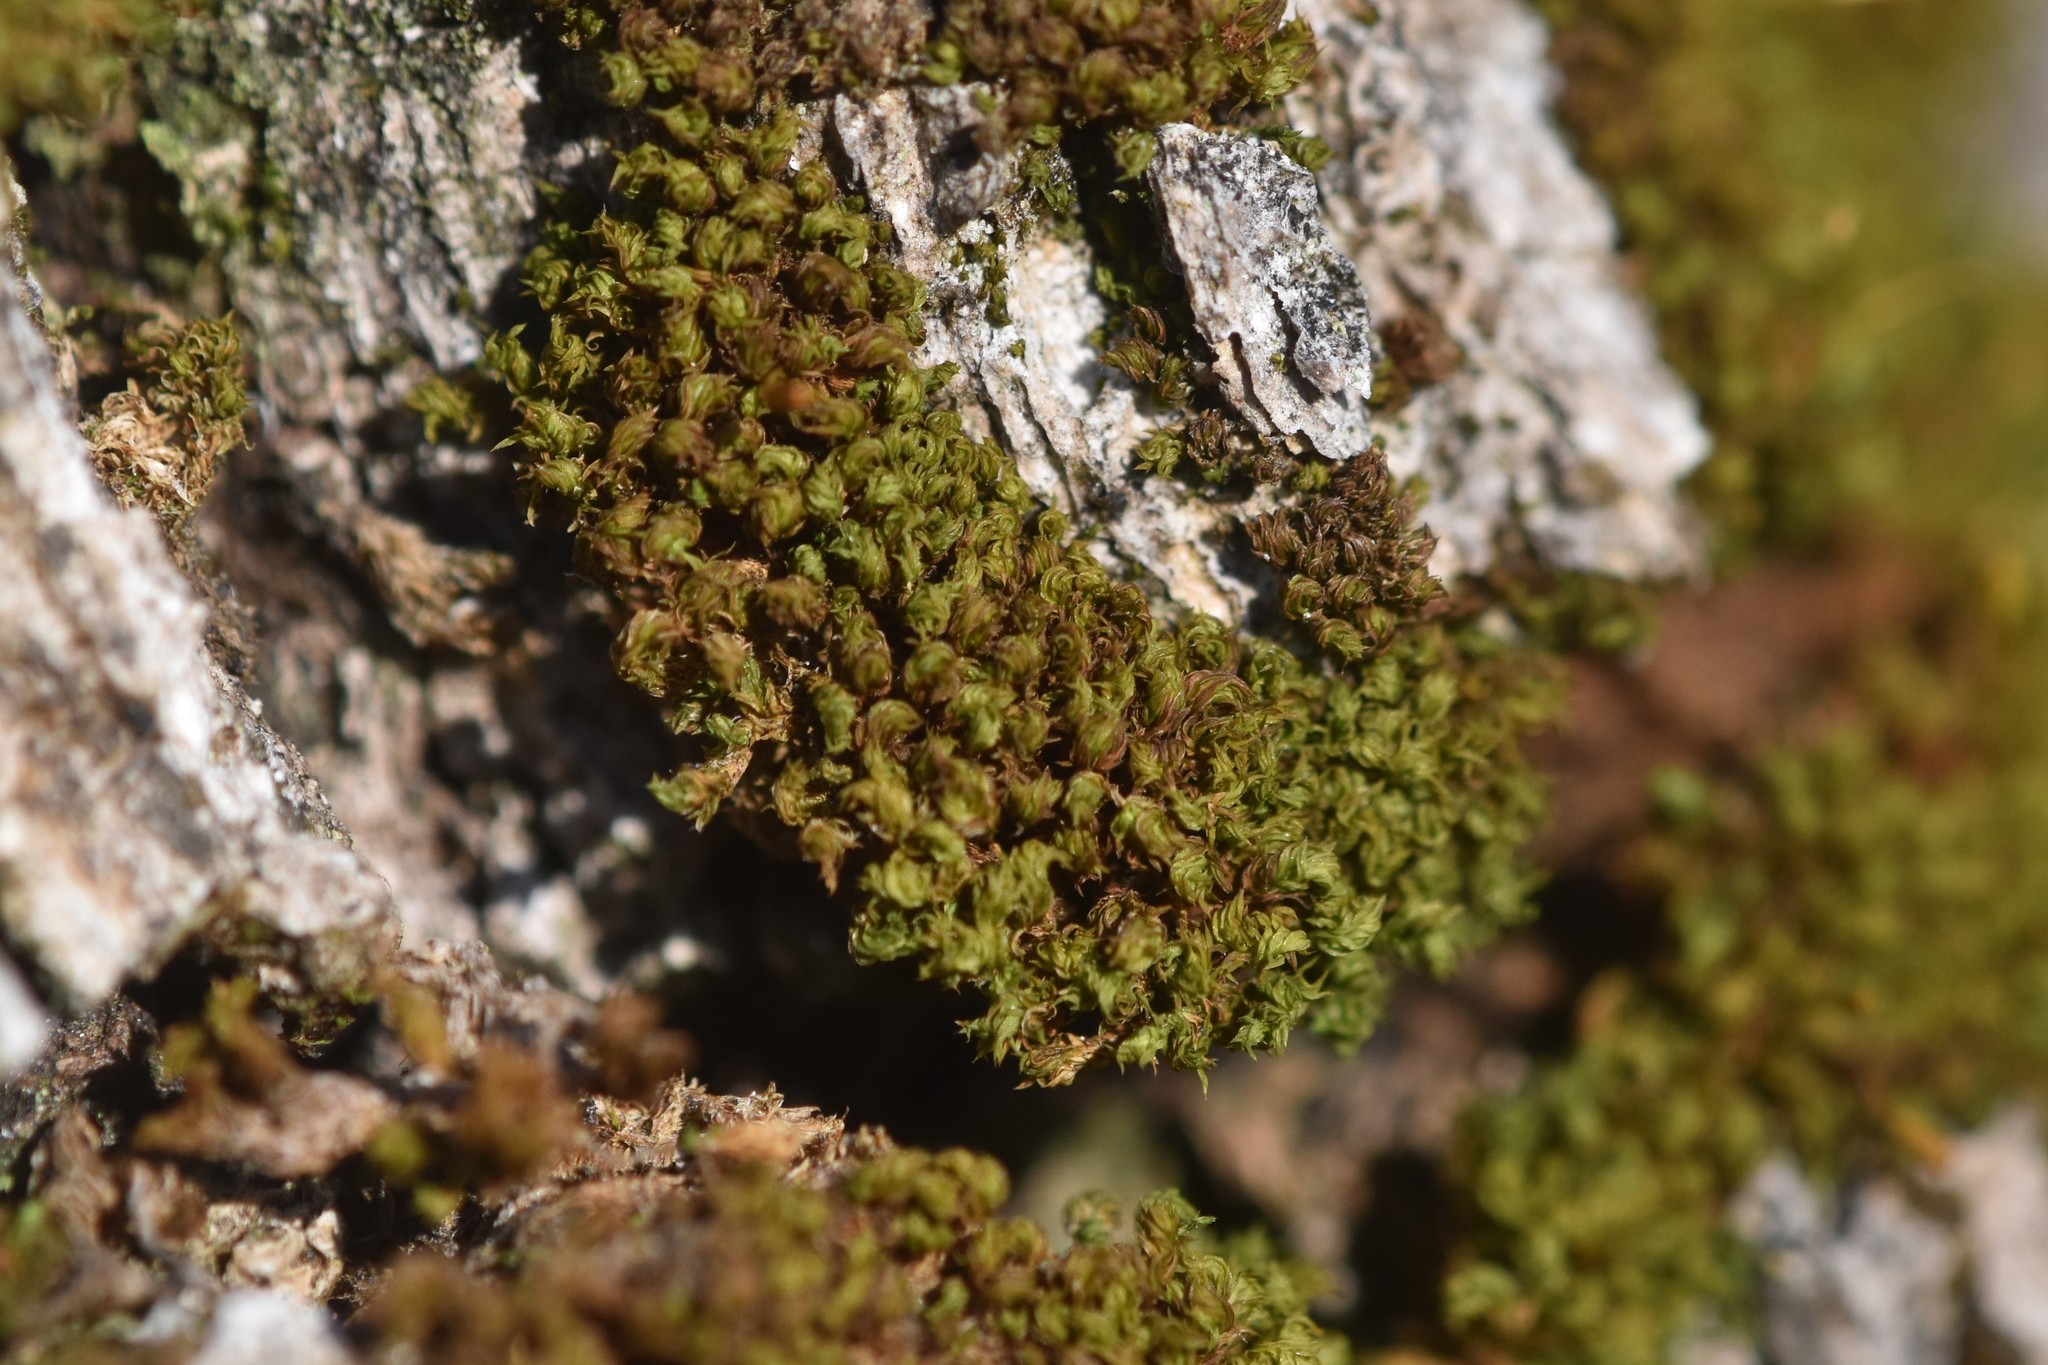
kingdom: Plantae
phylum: Bryophyta
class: Bryopsida
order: Orthotrichales
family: Orthotrichaceae
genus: Zygodon
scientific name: Zygodon viridissimus
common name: Green yoke moss
